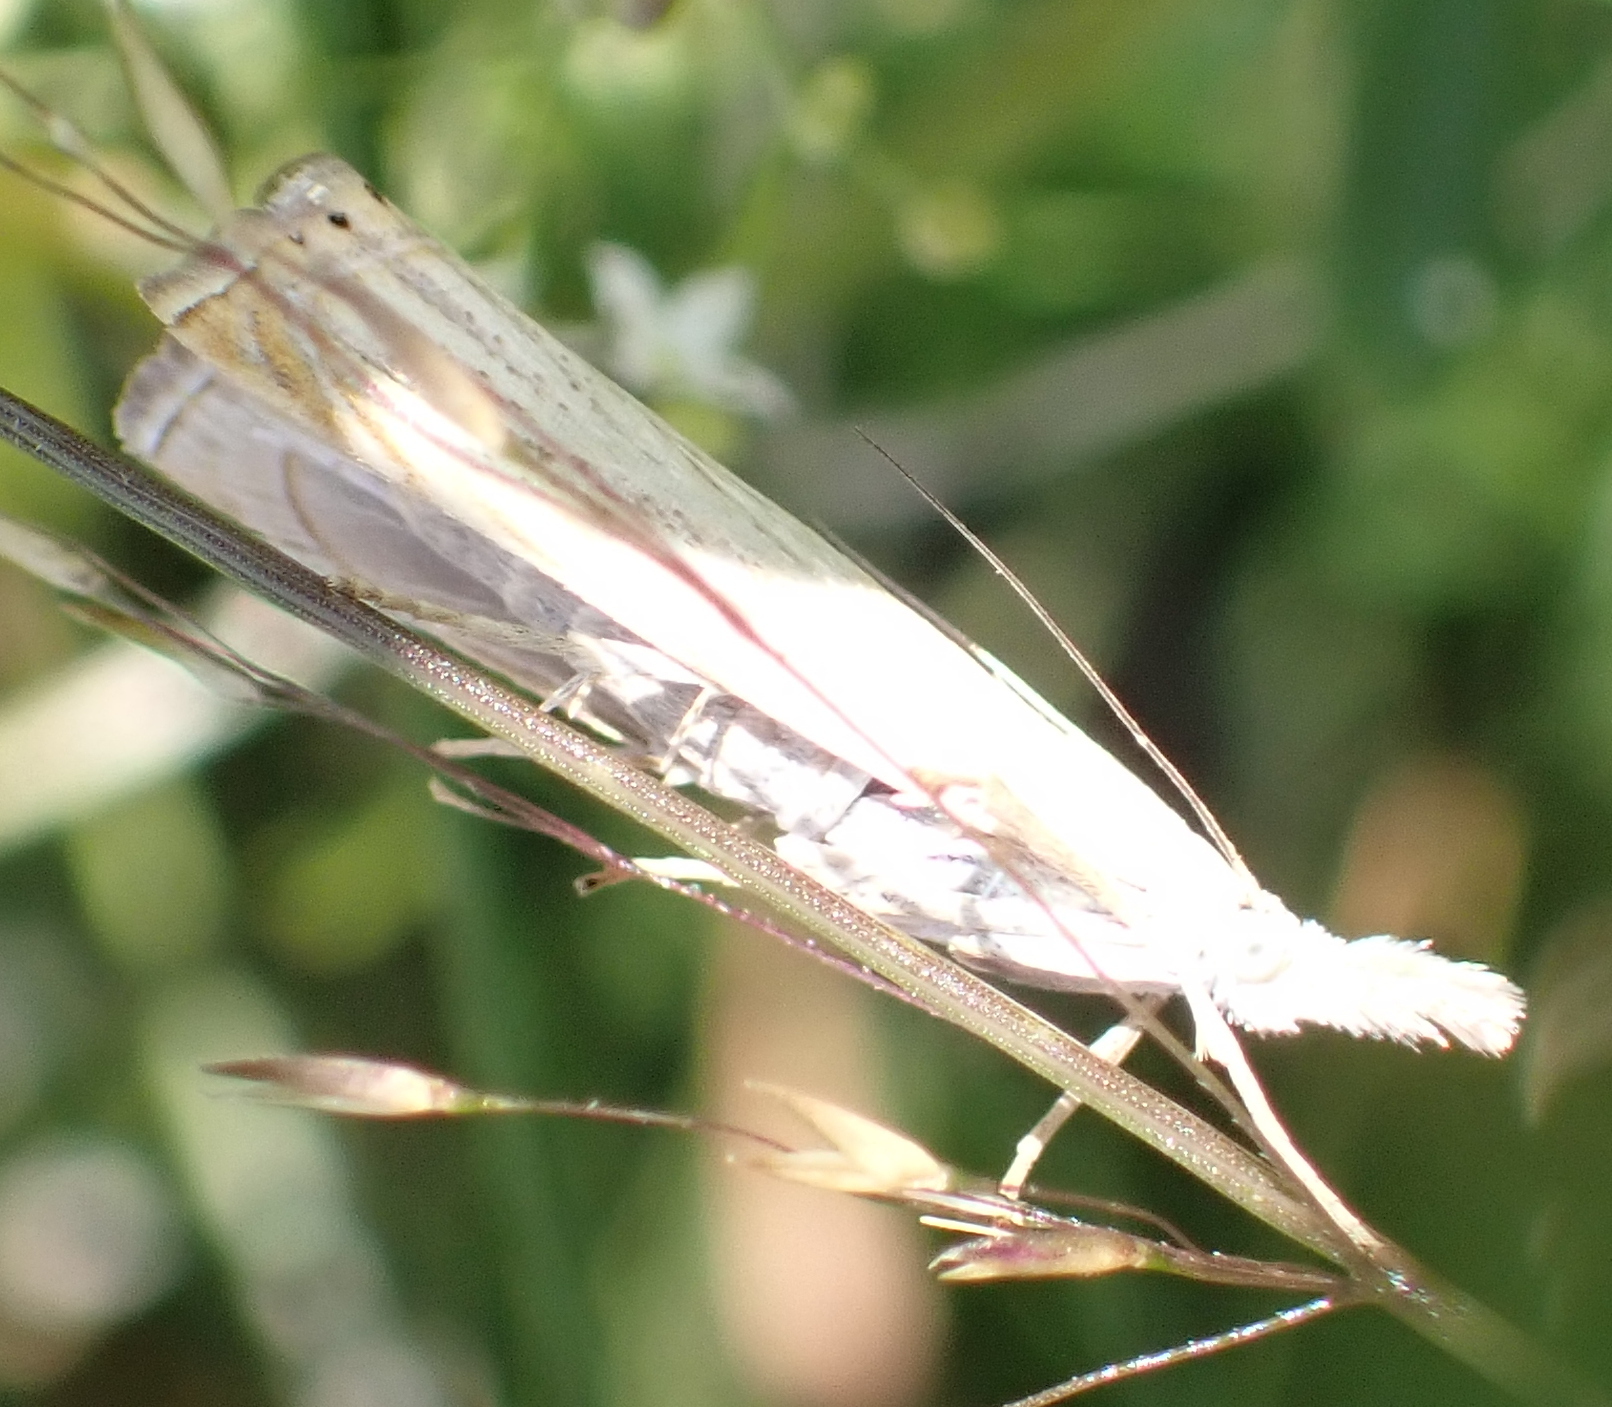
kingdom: Animalia
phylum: Arthropoda
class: Insecta
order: Lepidoptera
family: Crambidae
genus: Chrysoteuchia
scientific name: Chrysoteuchia culmella
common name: Garden grass-veneer
